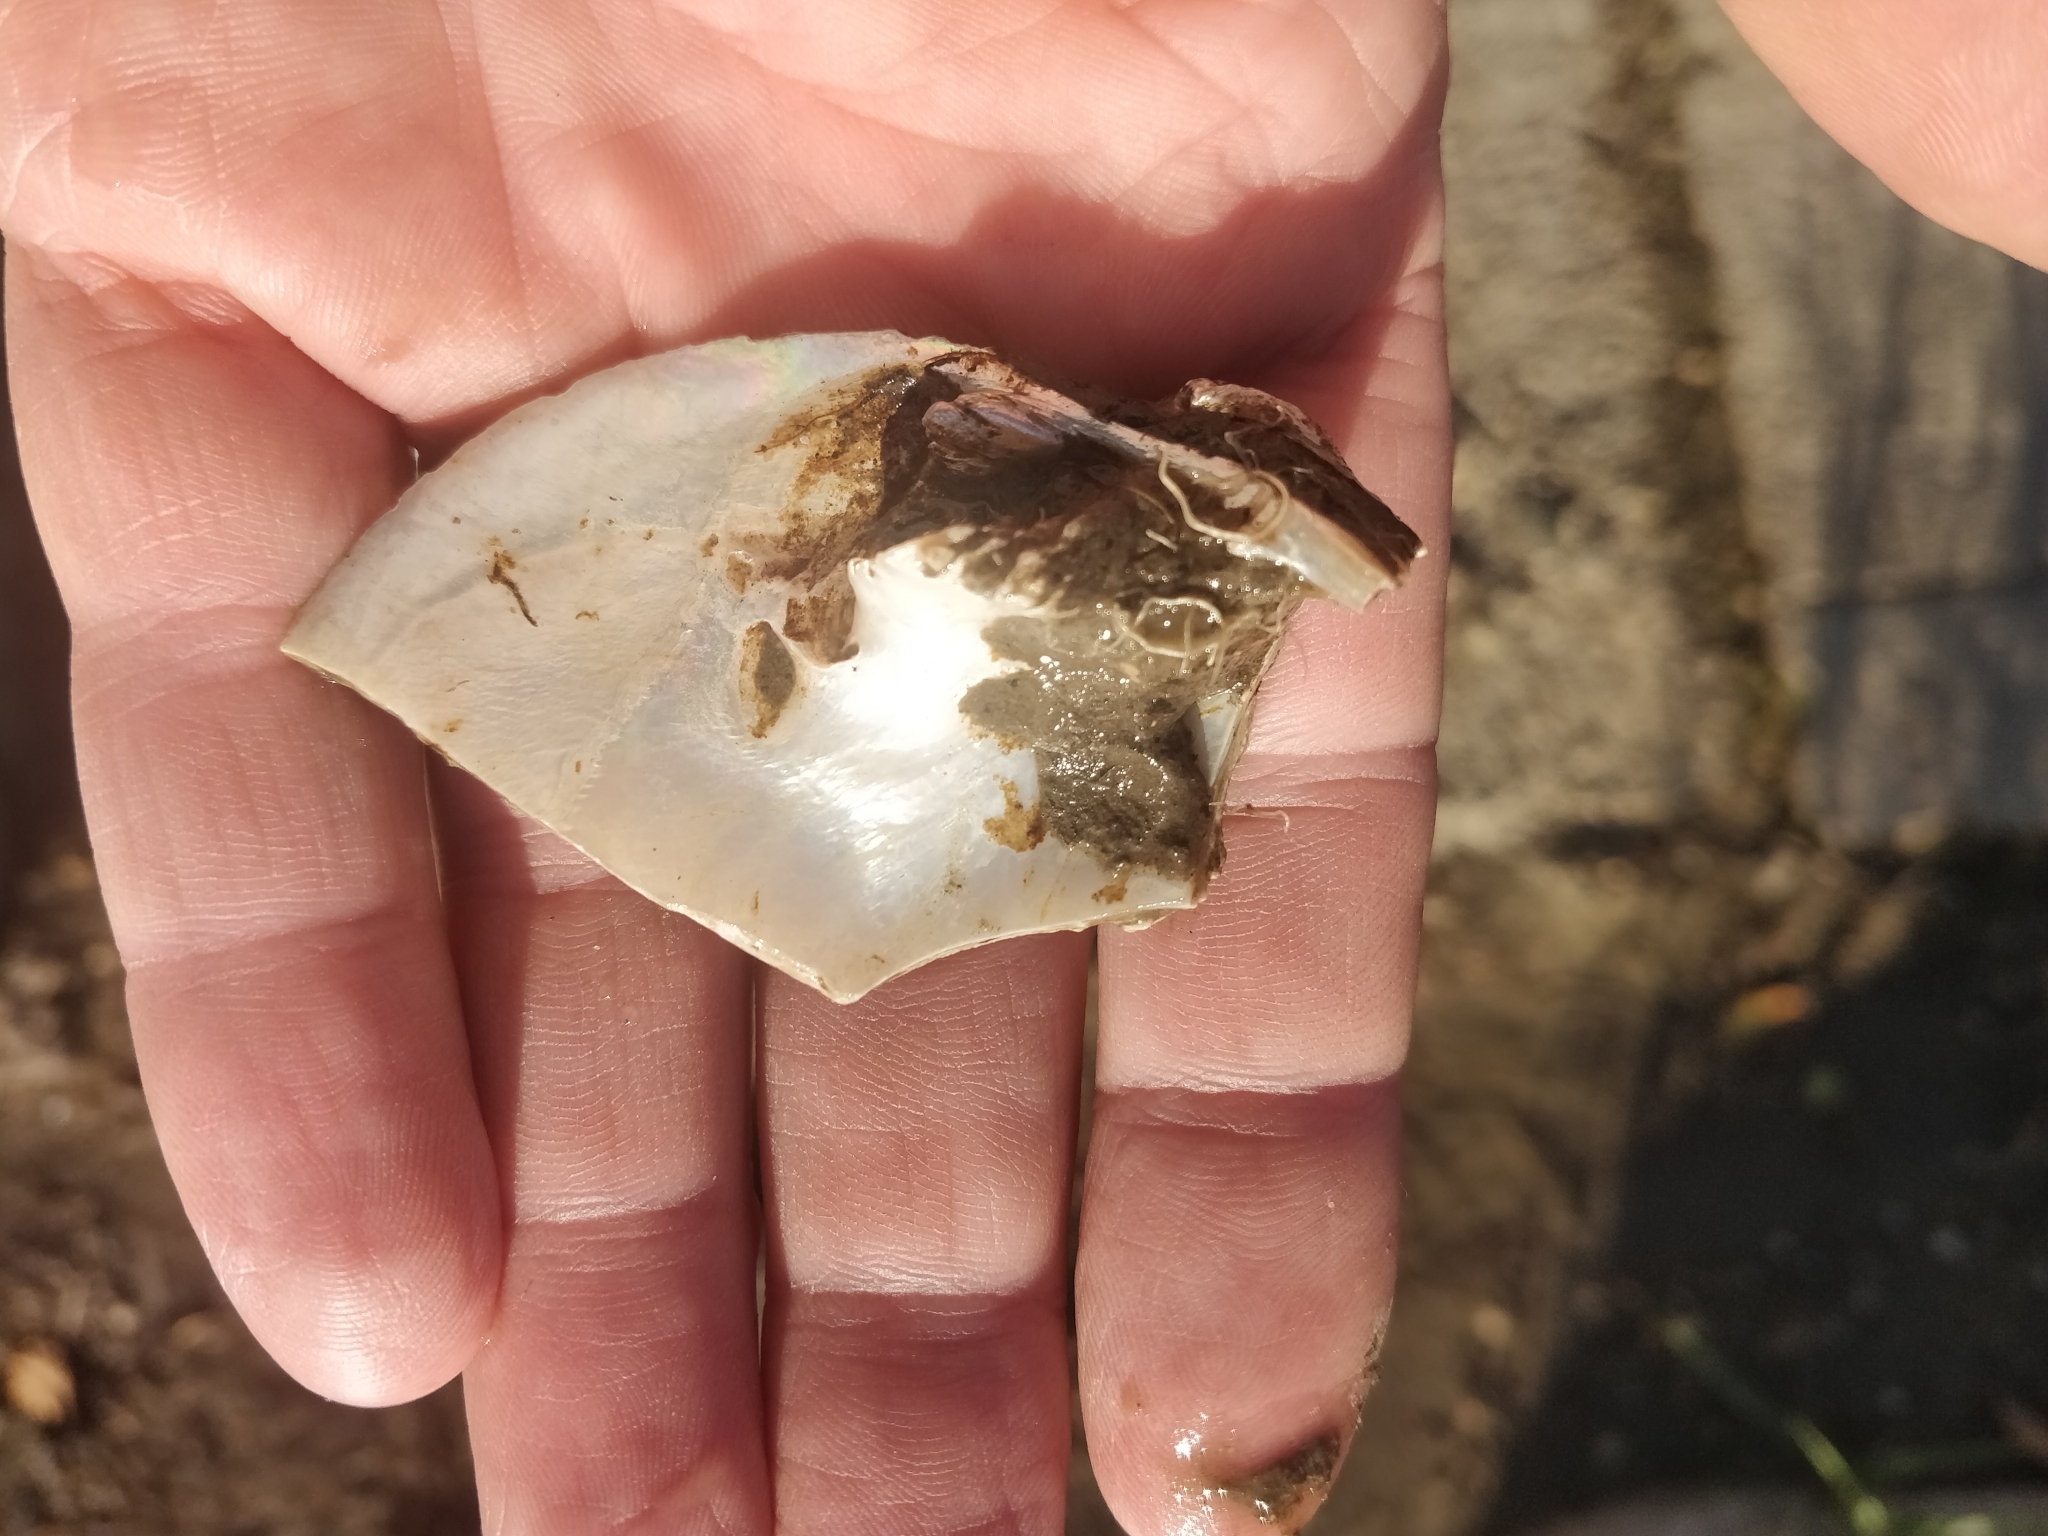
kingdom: Animalia
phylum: Mollusca
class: Bivalvia
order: Unionida
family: Unionidae
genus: Quadrula
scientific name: Quadrula quadrula
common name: Mapleleaf
